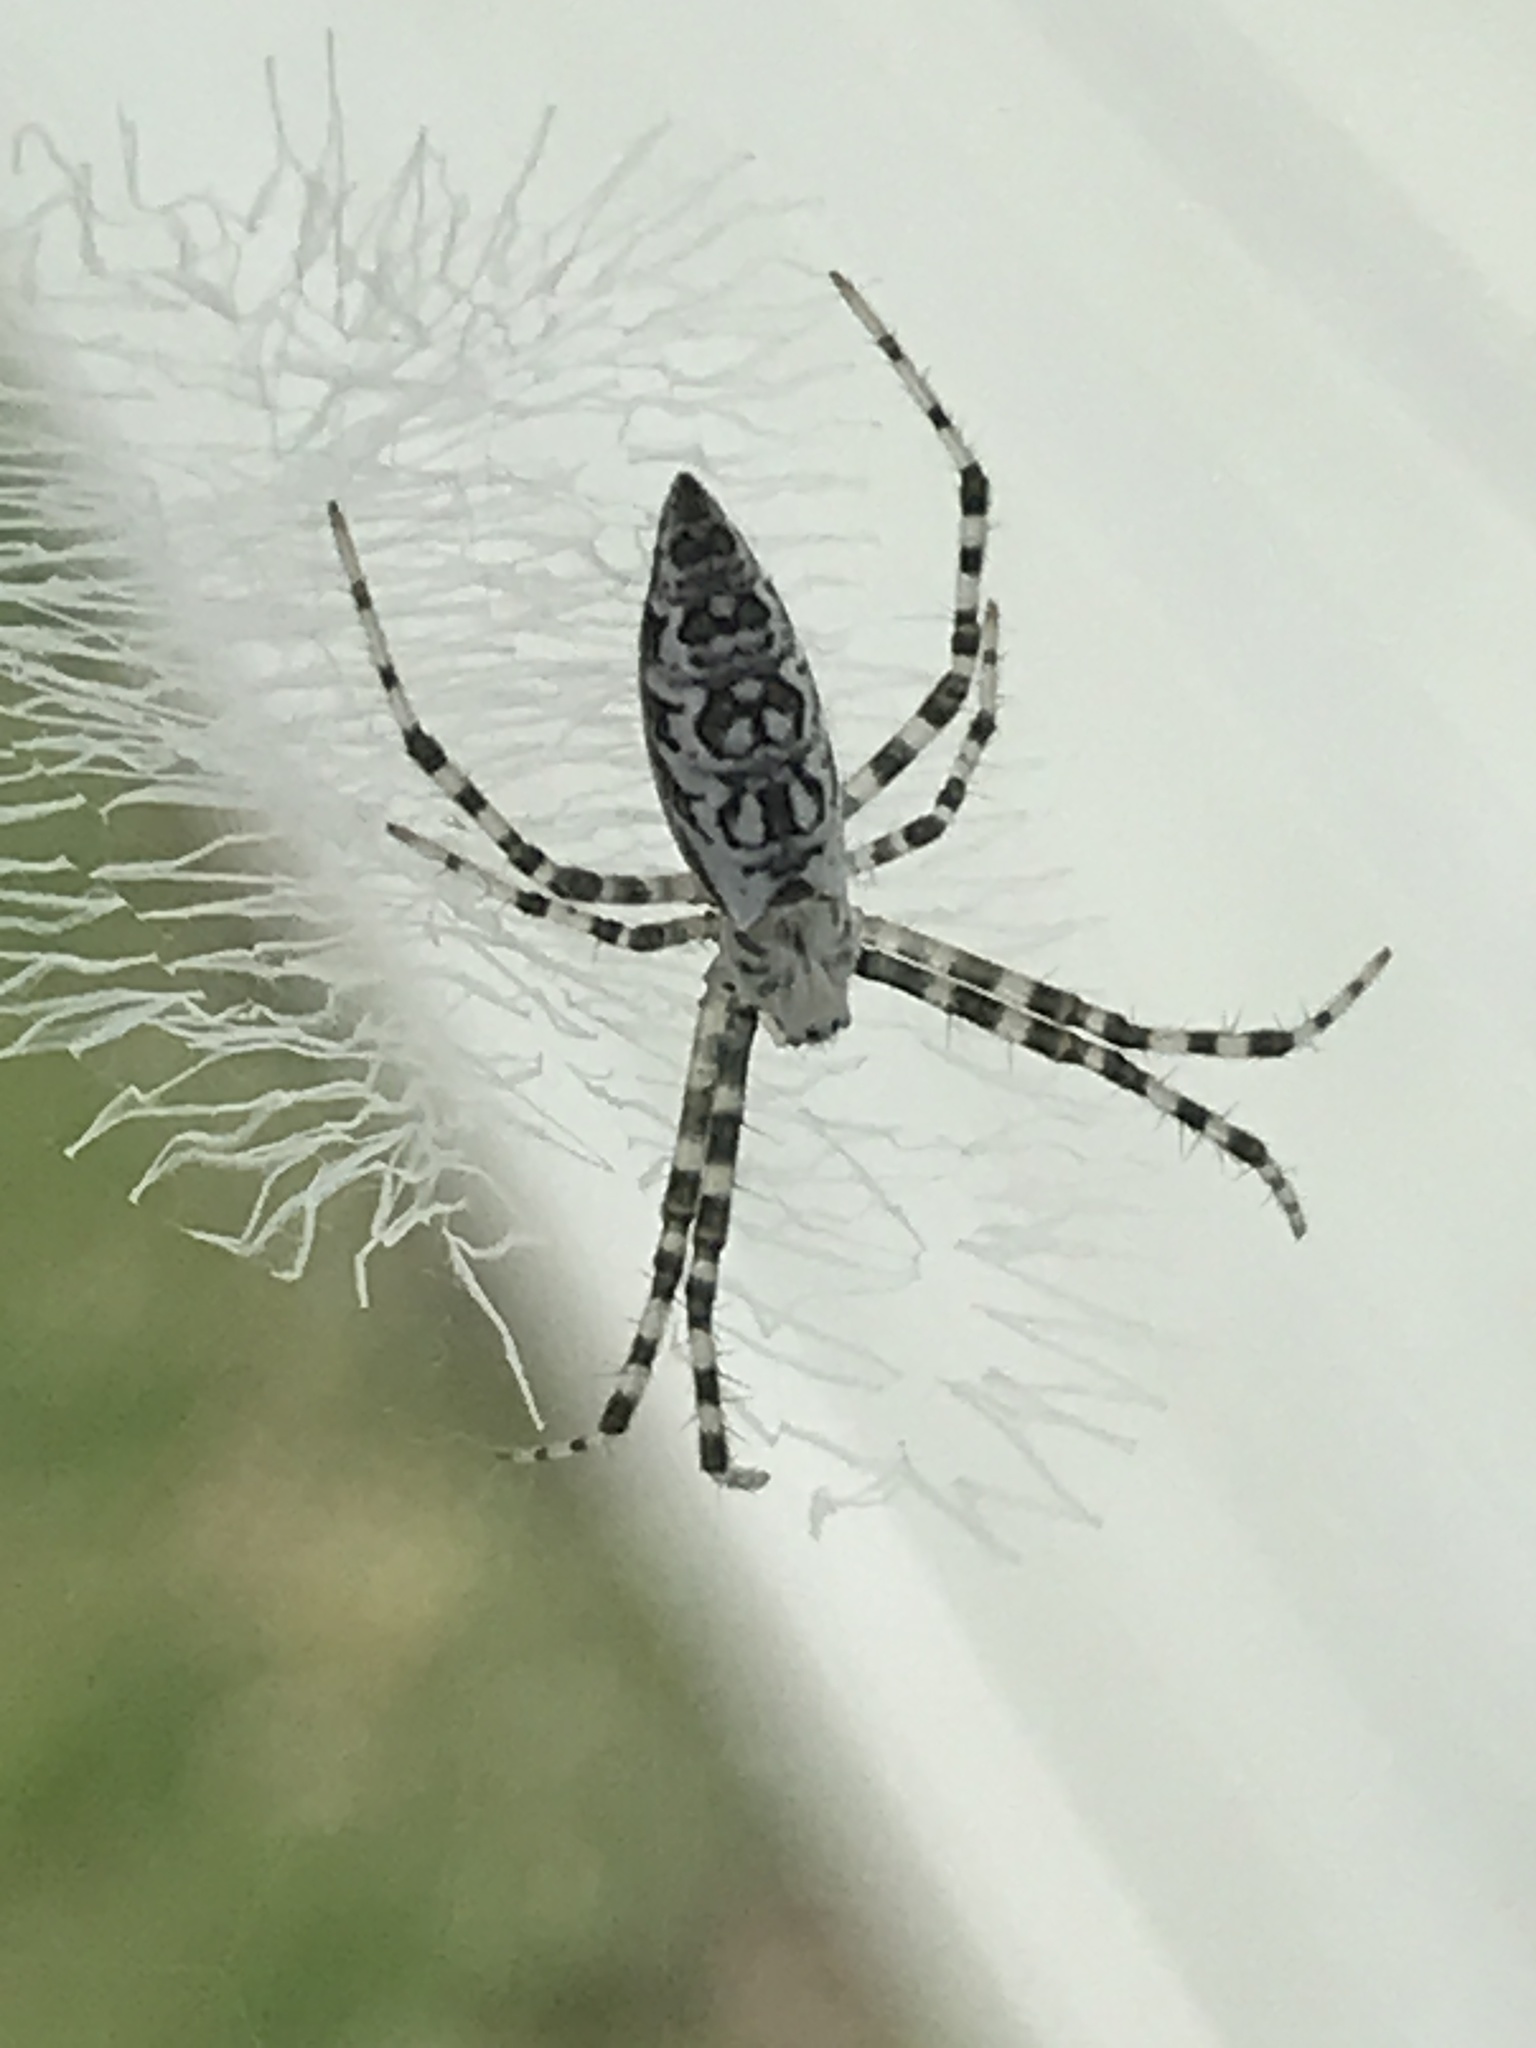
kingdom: Animalia
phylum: Arthropoda
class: Arachnida
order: Araneae
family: Araneidae
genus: Argiope
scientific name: Argiope aurantia
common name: Orb weavers
